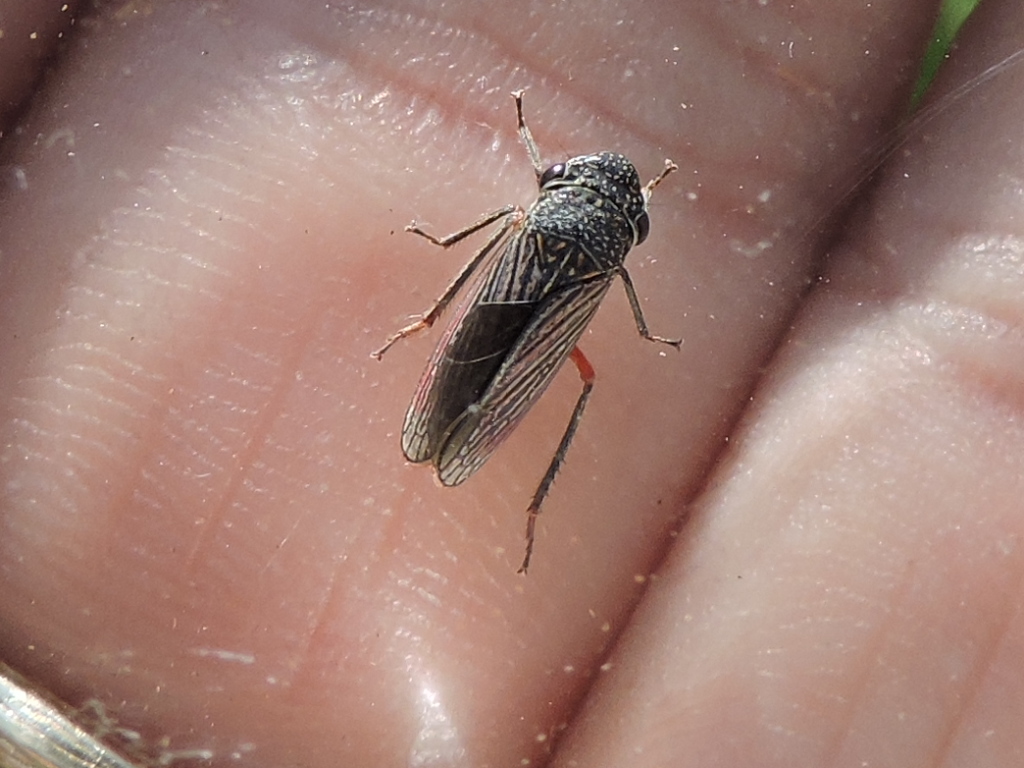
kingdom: Animalia
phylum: Arthropoda
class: Insecta
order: Hemiptera
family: Cicadellidae
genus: Cuerna
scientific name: Cuerna costalis
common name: Lateral-lined sharpshooter
